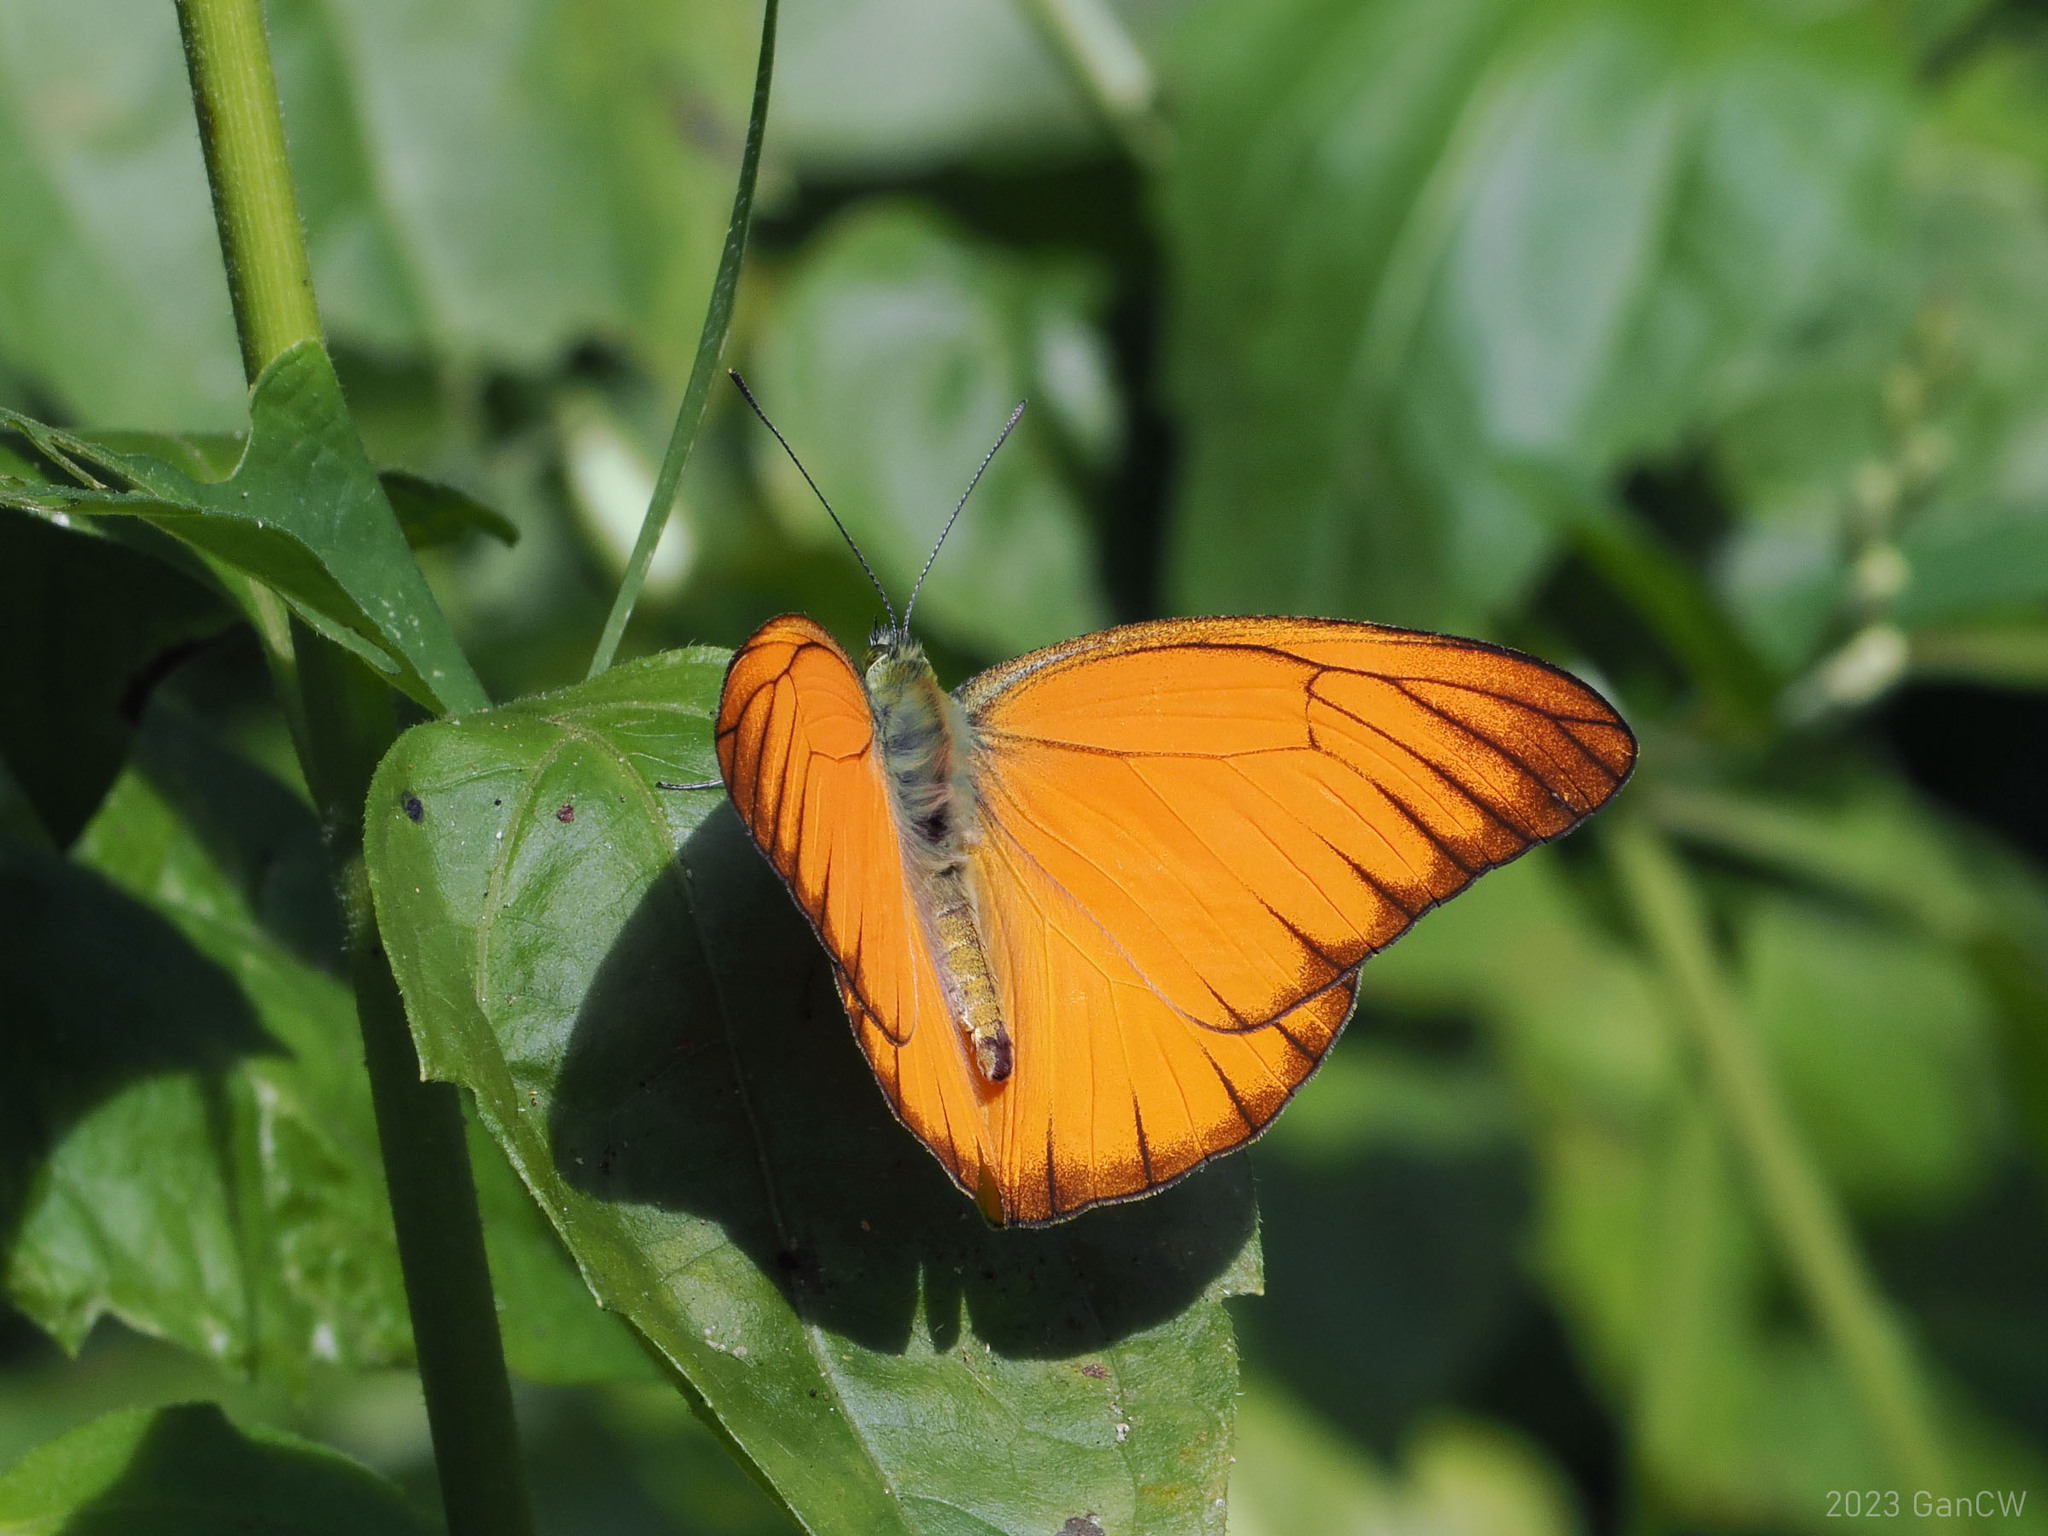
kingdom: Animalia
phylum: Arthropoda
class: Insecta
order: Lepidoptera
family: Pieridae
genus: Appias
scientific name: Appias nero
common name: Orange albatross
